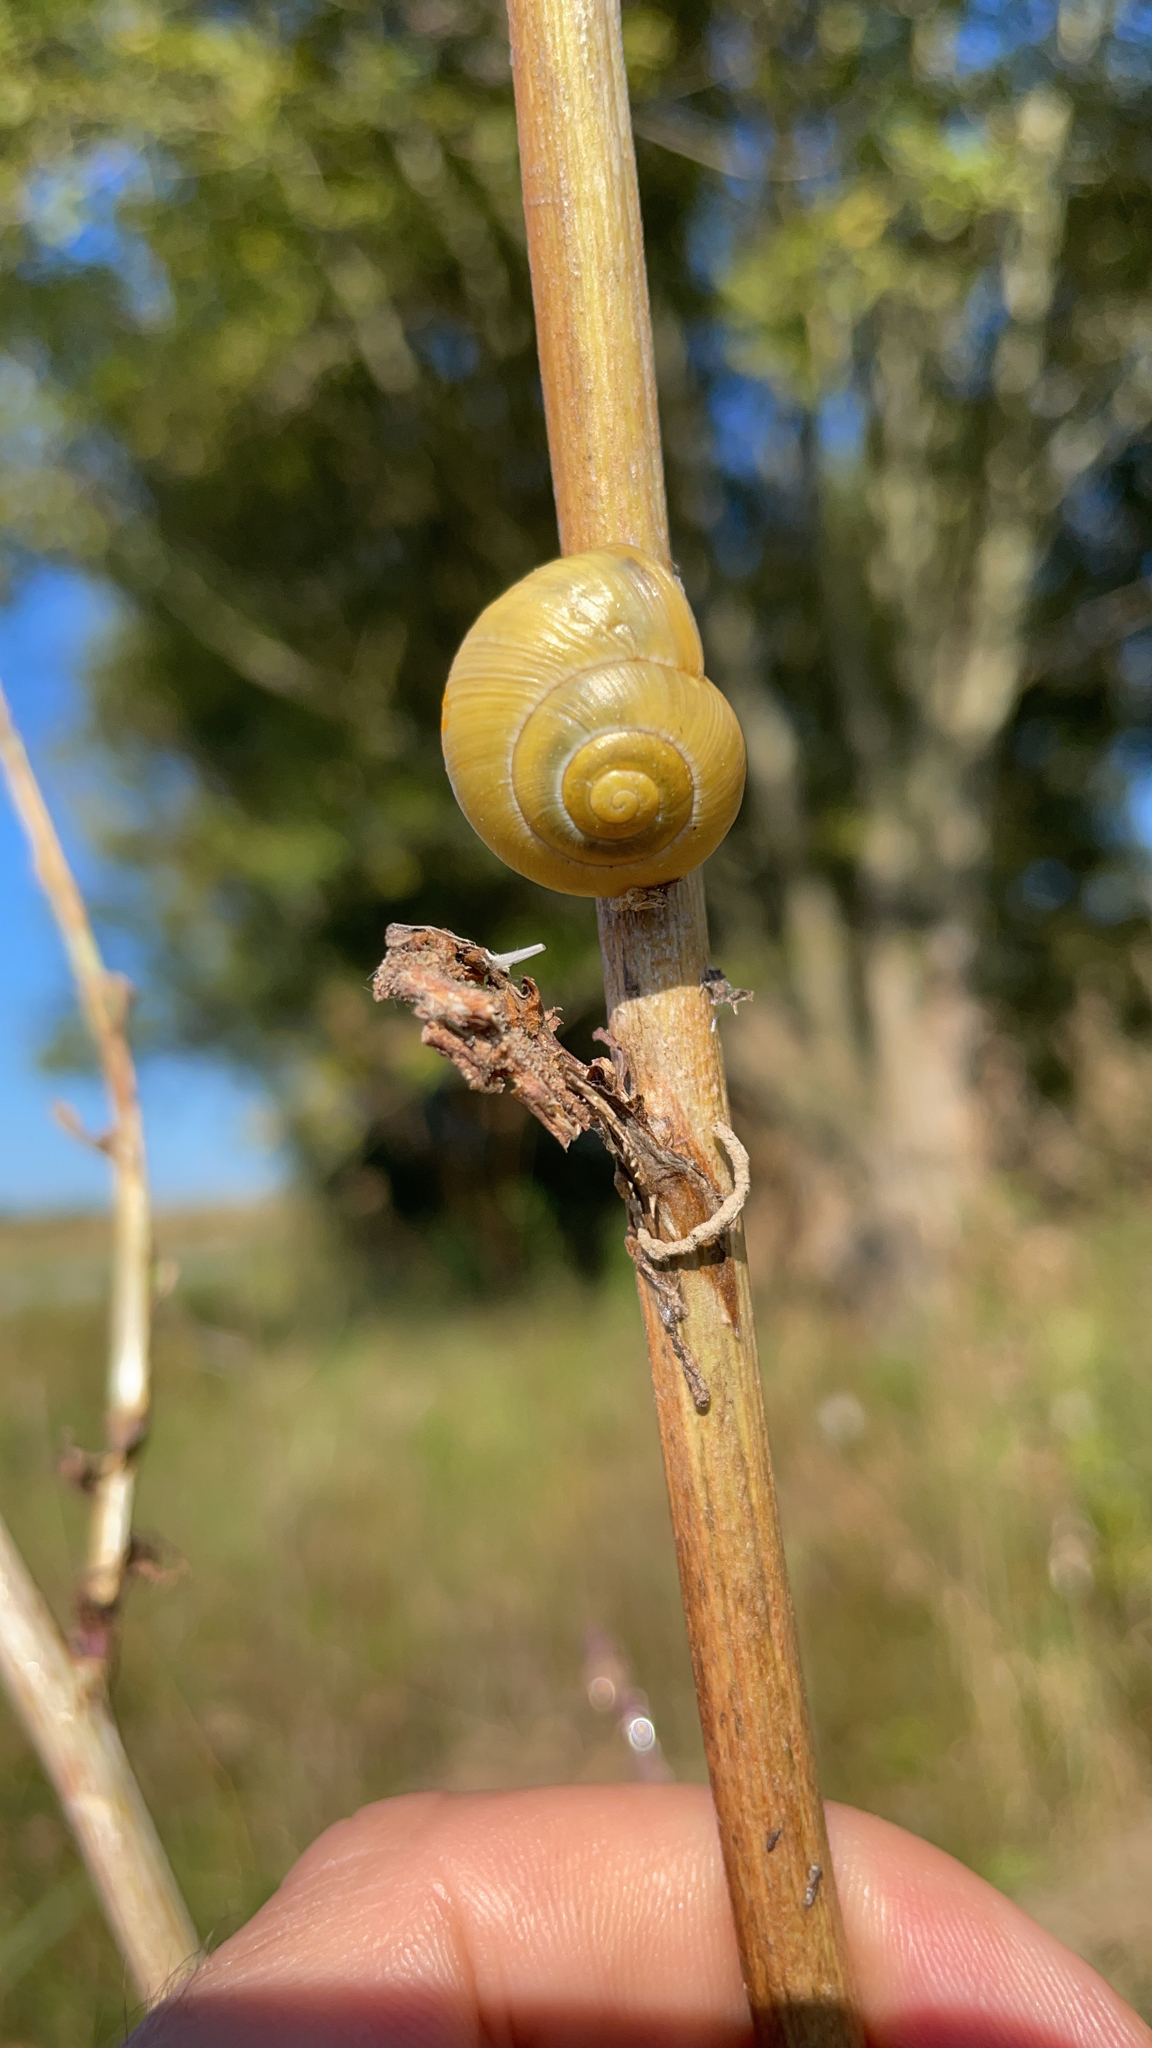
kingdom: Animalia
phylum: Mollusca
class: Gastropoda
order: Stylommatophora
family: Helicidae
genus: Cepaea
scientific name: Cepaea
